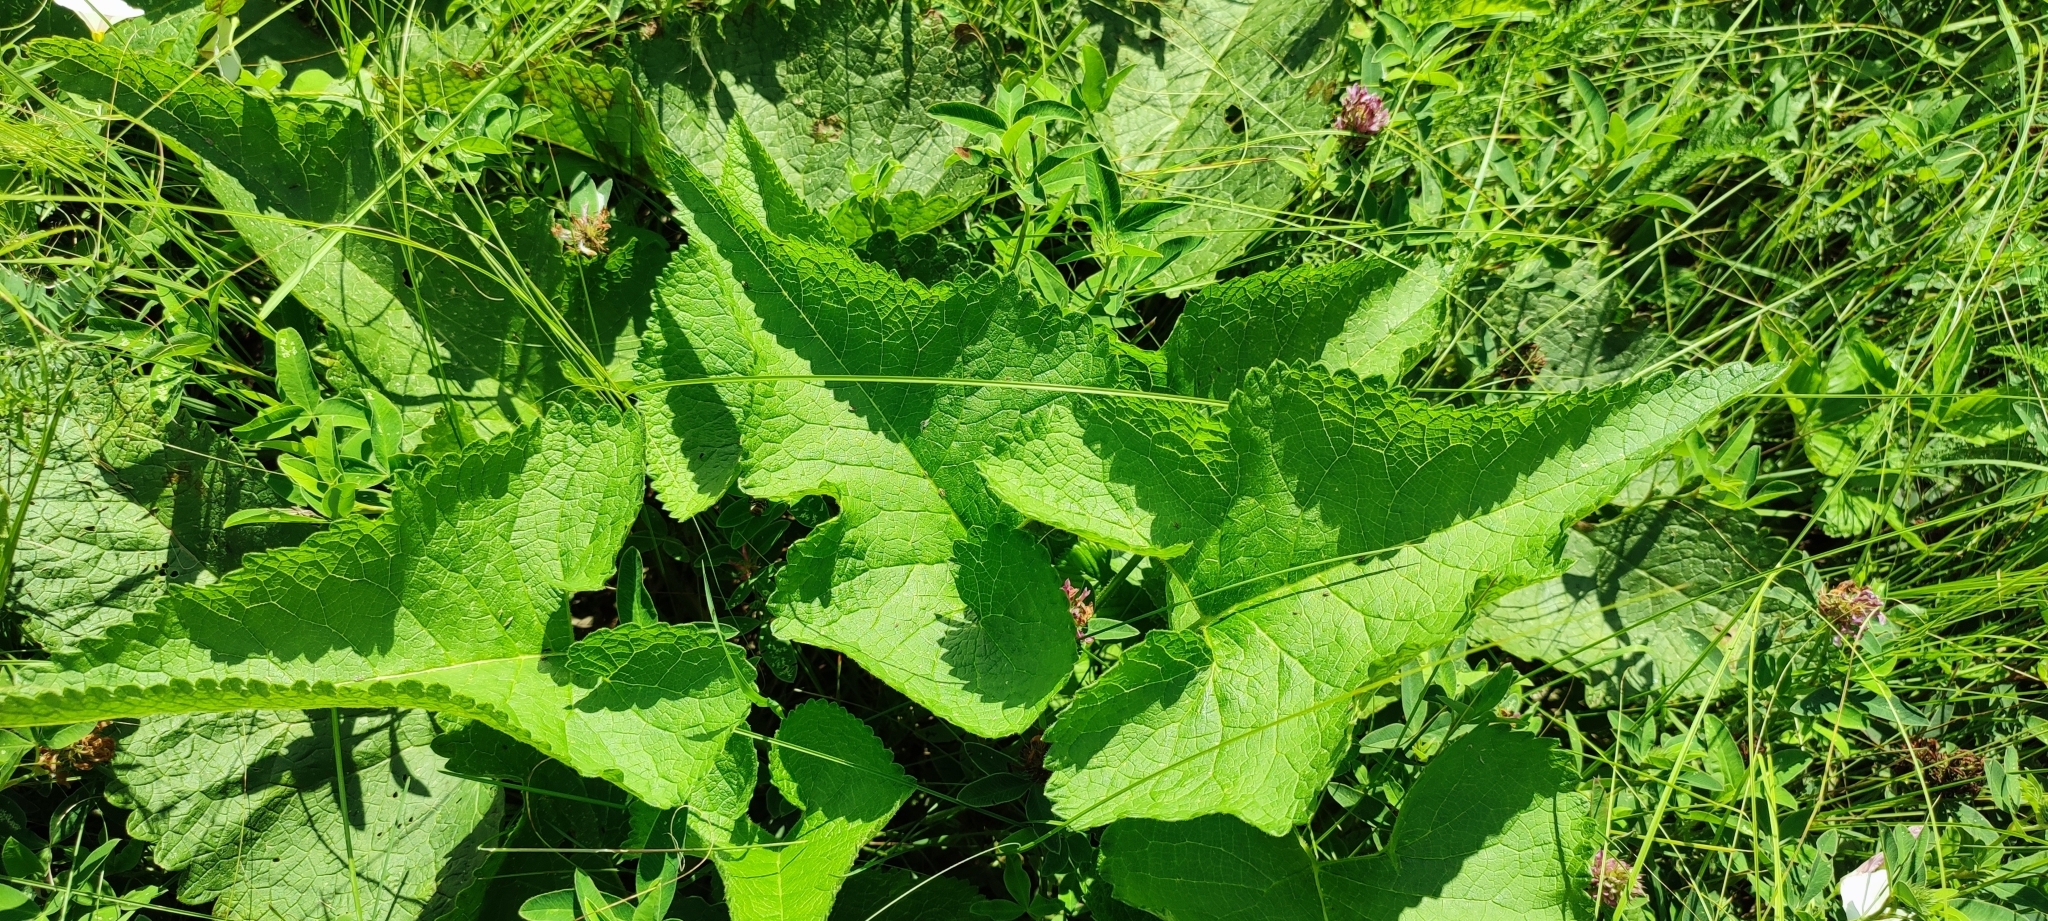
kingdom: Plantae
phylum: Tracheophyta
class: Magnoliopsida
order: Lamiales
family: Lamiaceae
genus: Phlomoides
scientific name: Phlomoides tuberosa
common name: Tuberous jerusalem sage
